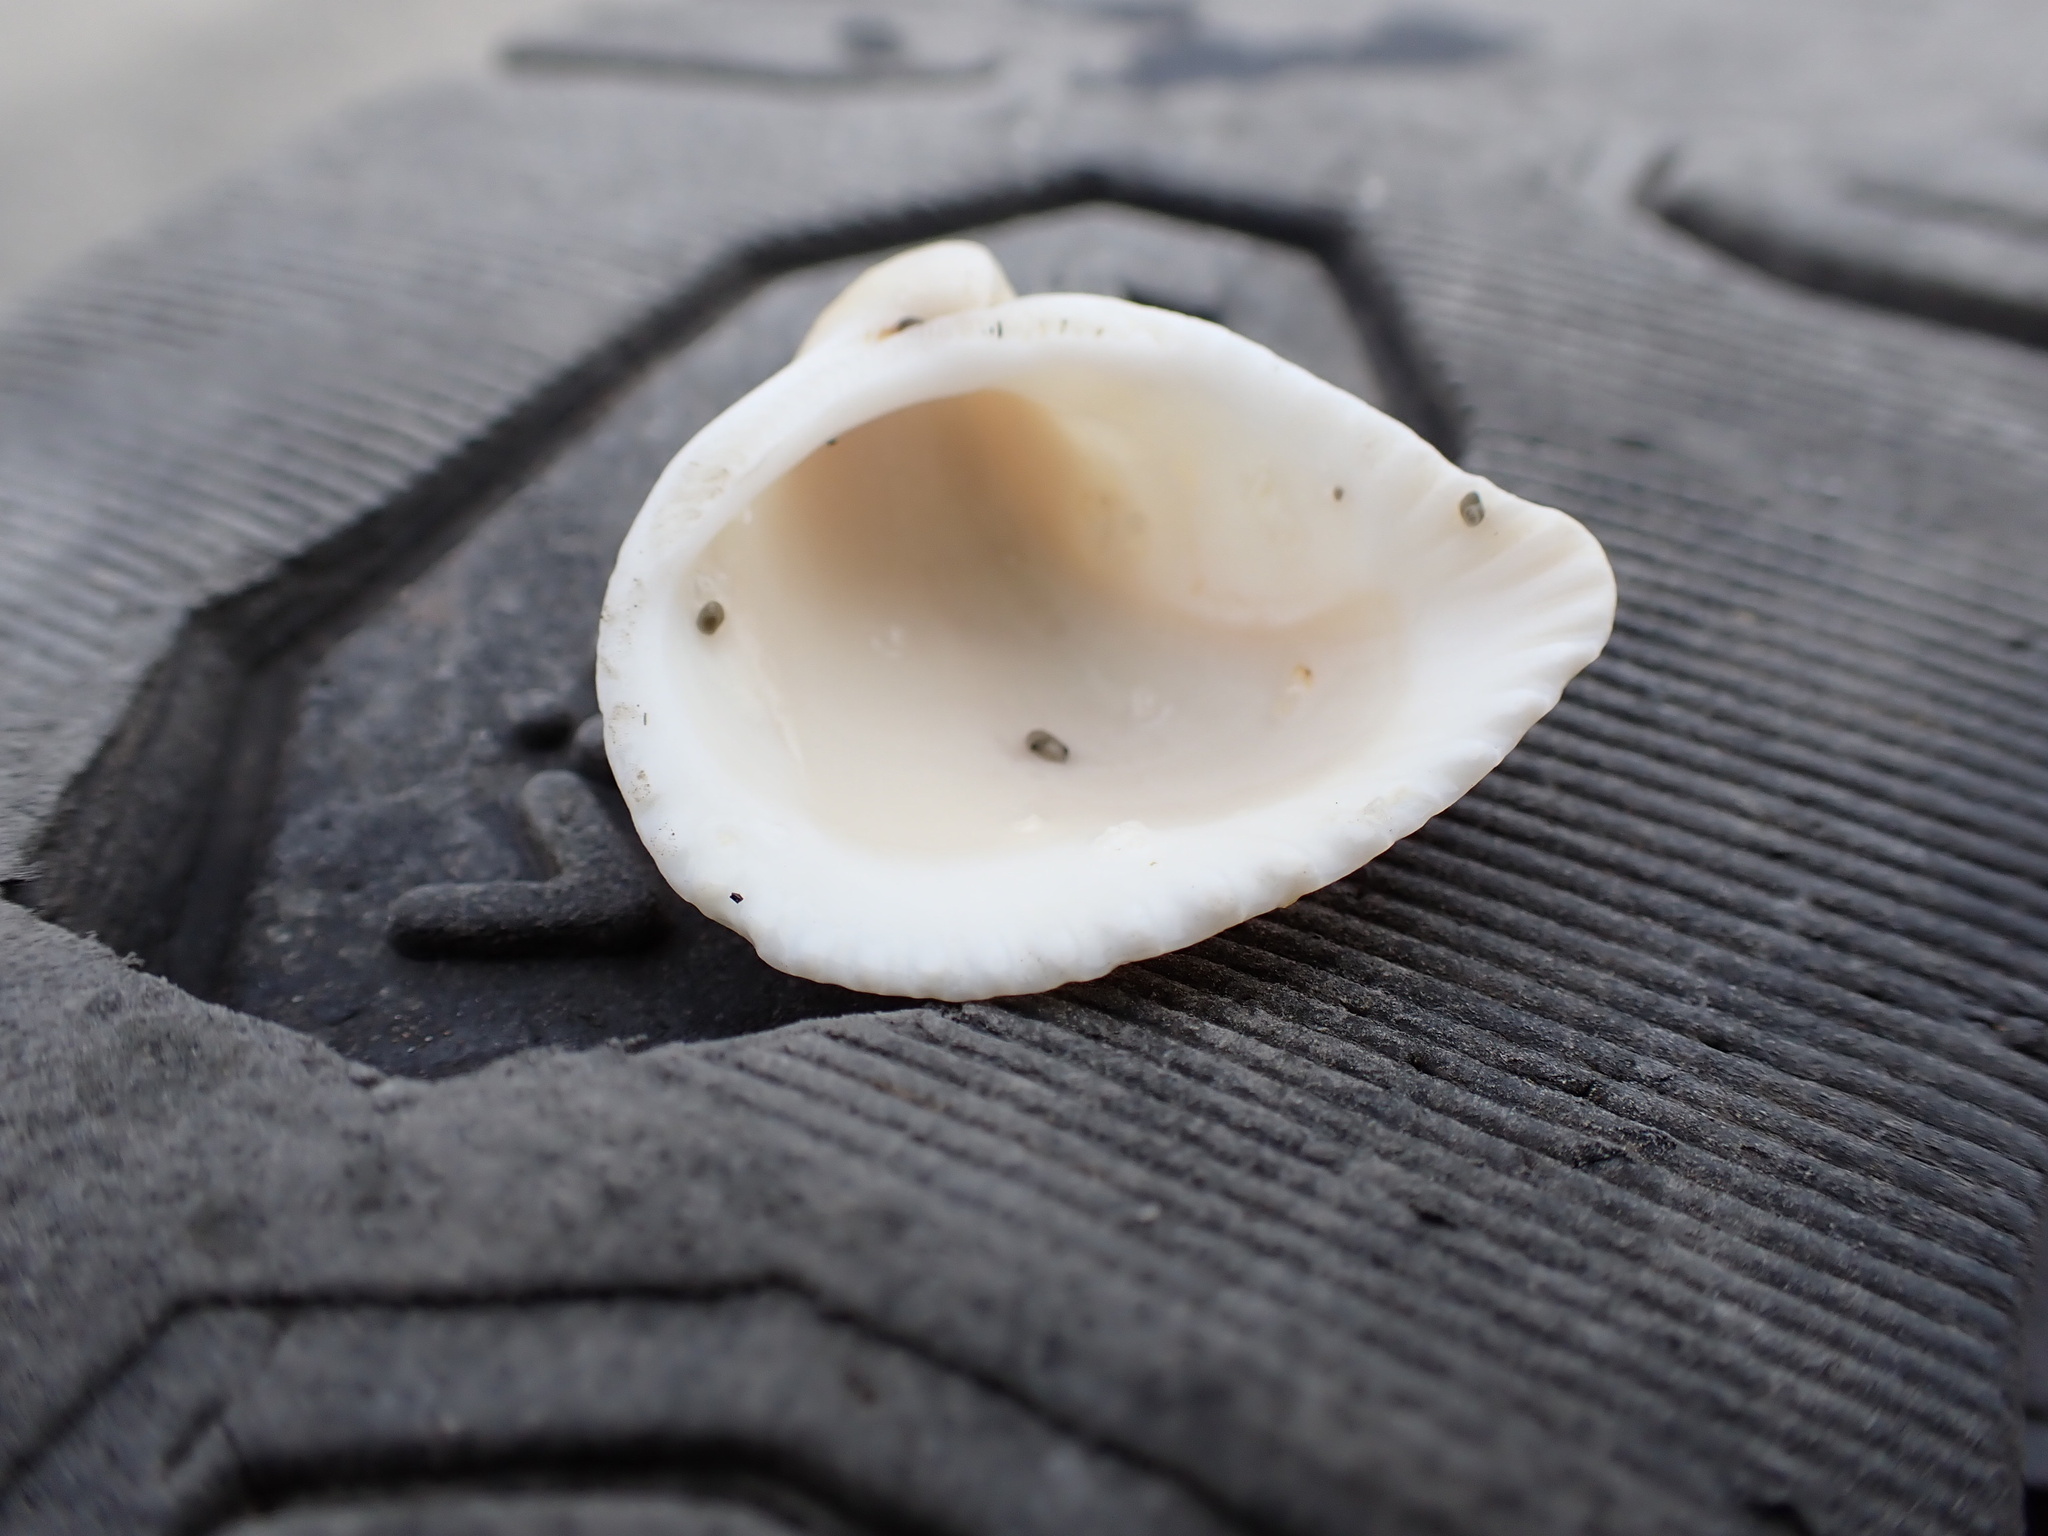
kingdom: Animalia
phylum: Mollusca
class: Bivalvia
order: Arcida
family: Noetiidae
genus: Noetia
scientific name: Noetia reversa
